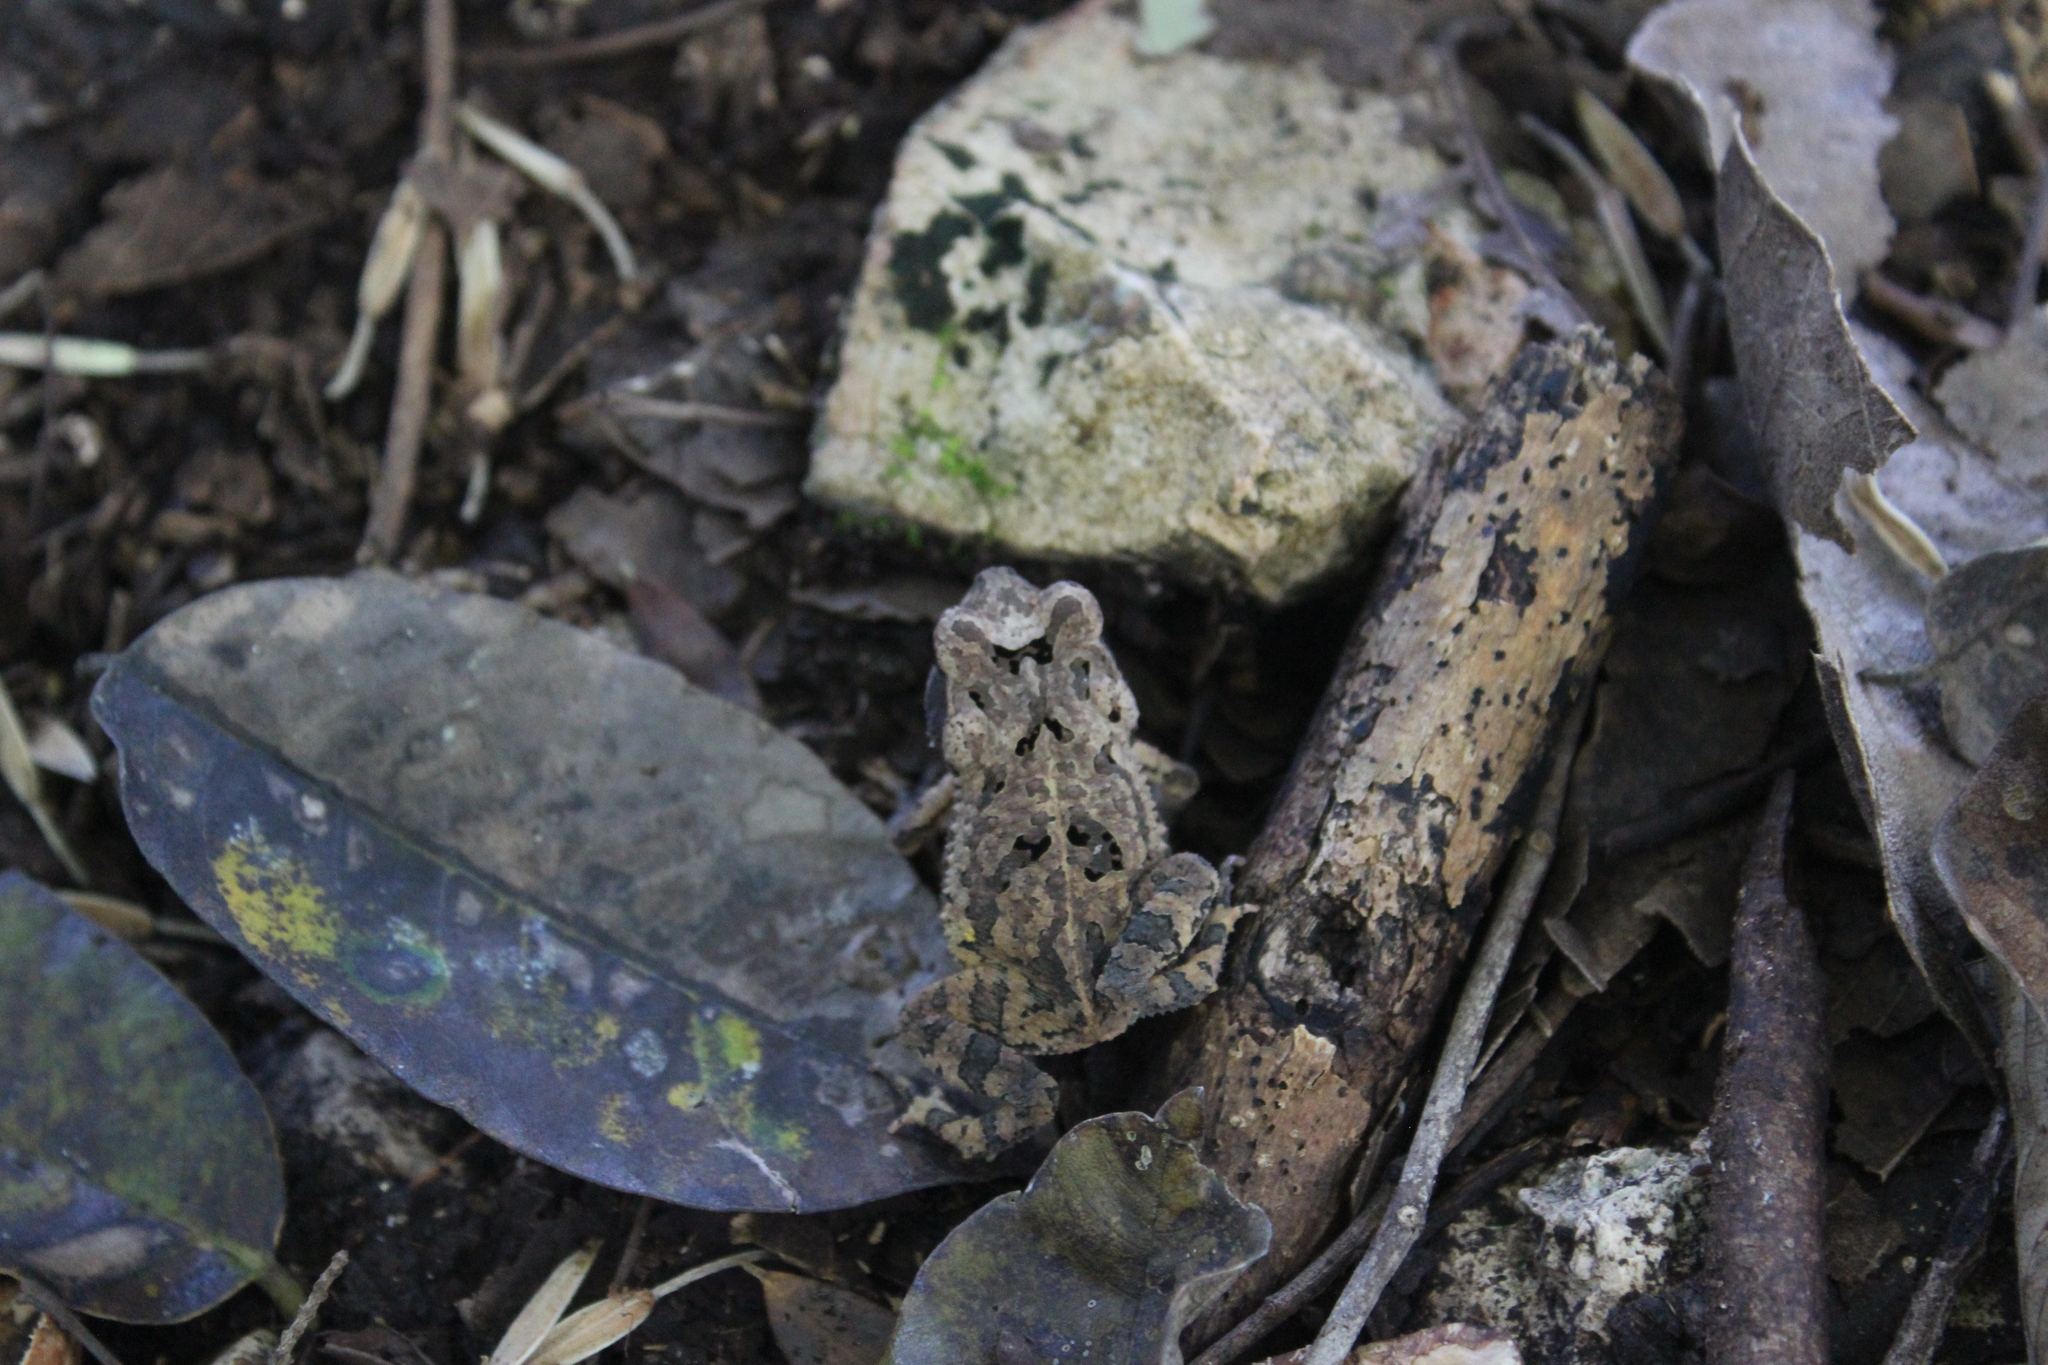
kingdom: Animalia
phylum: Chordata
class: Amphibia
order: Anura
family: Bufonidae
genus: Incilius
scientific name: Incilius valliceps
